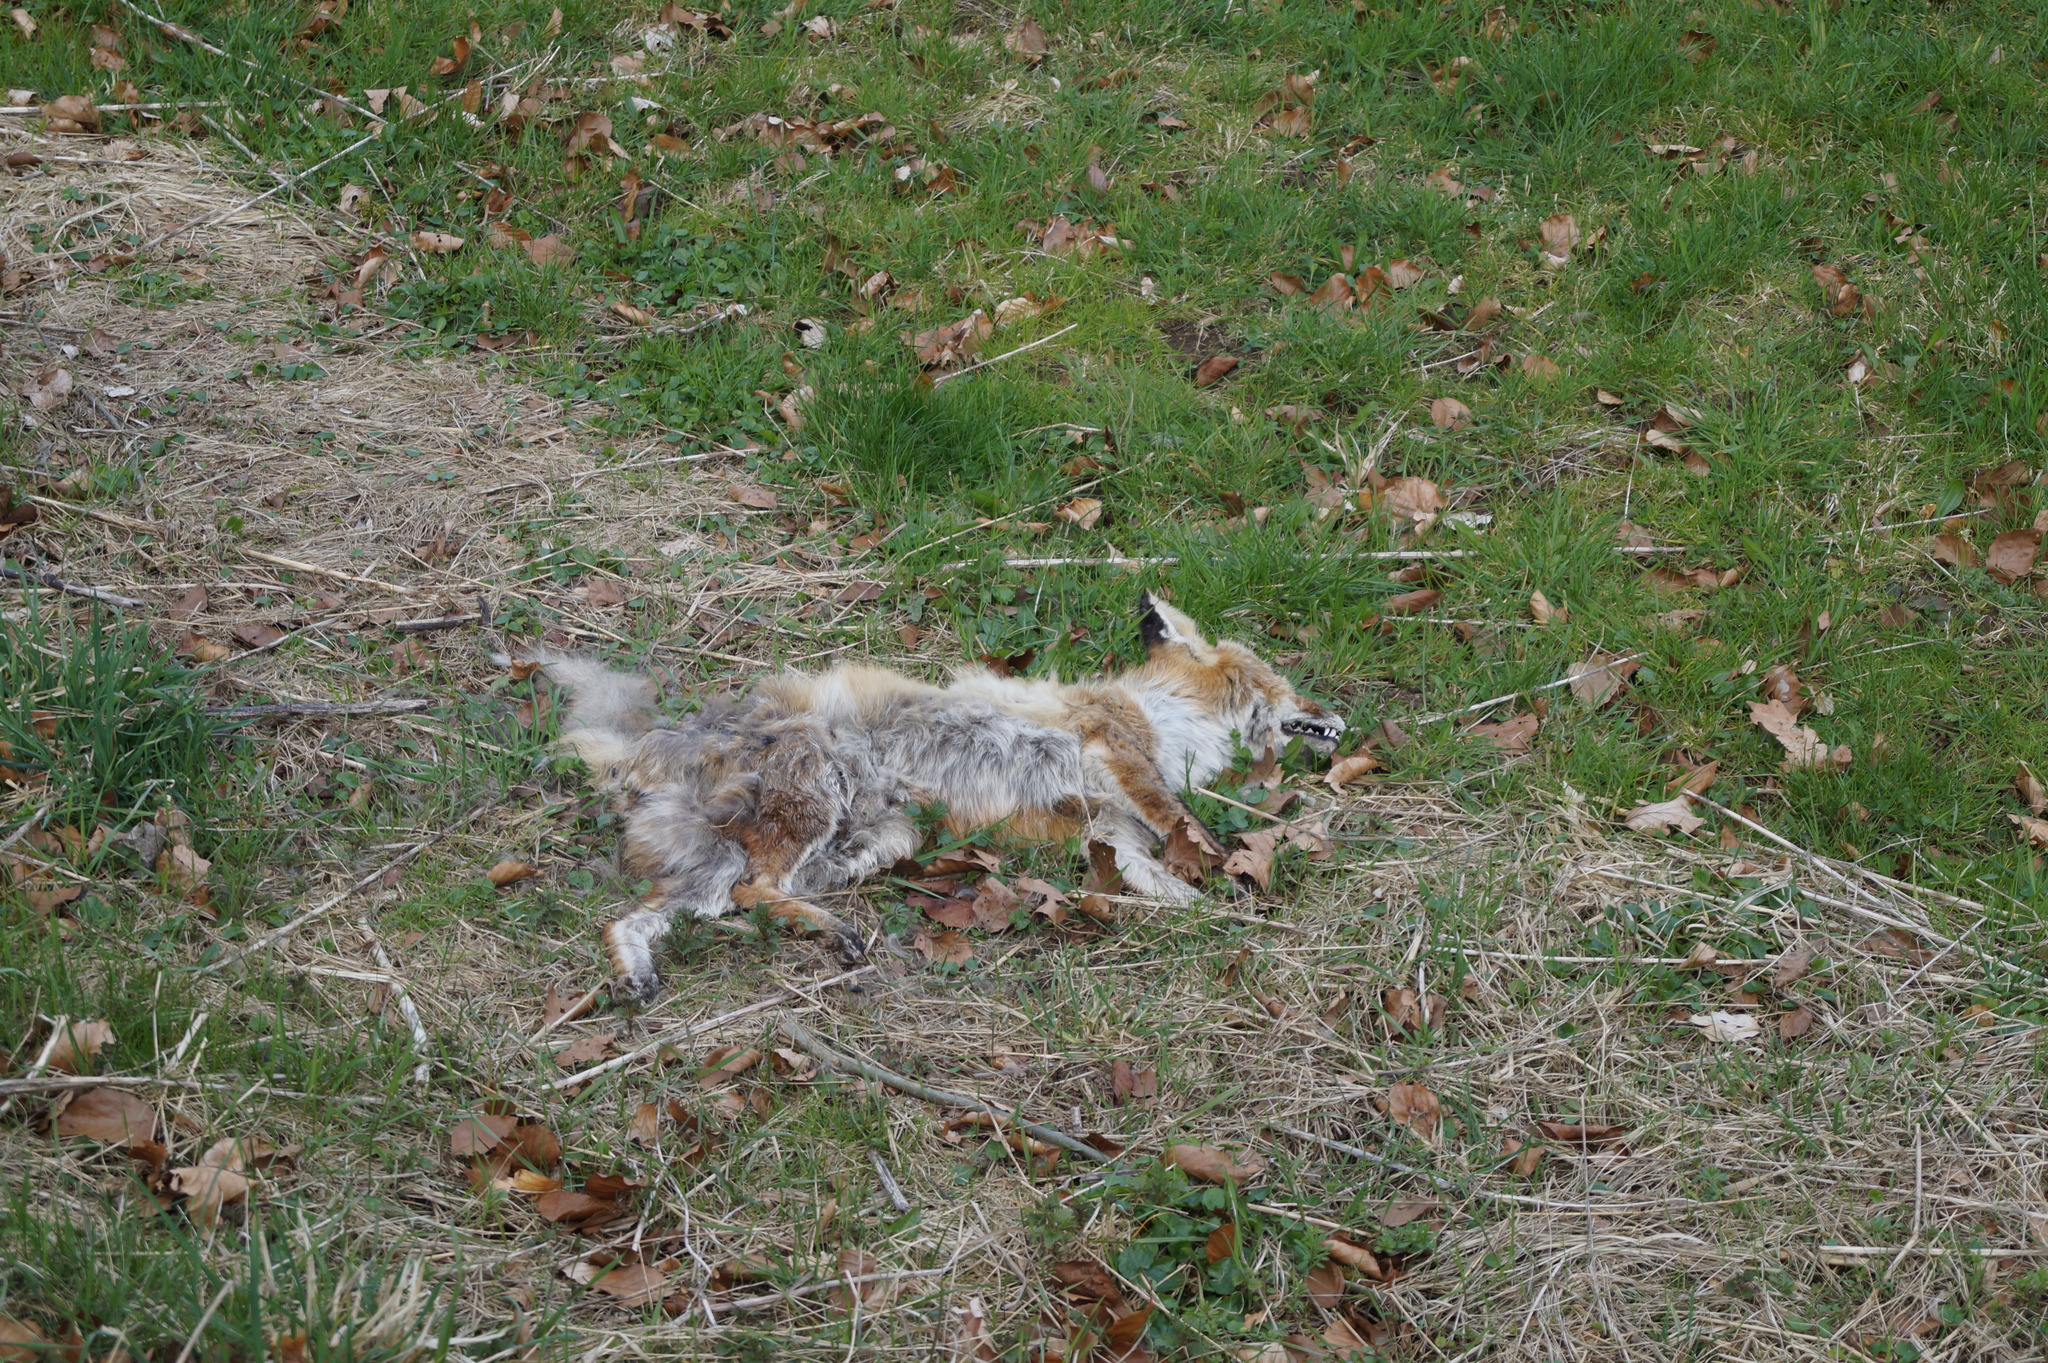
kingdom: Animalia
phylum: Chordata
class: Mammalia
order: Carnivora
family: Canidae
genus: Vulpes
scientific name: Vulpes vulpes
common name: Red fox
